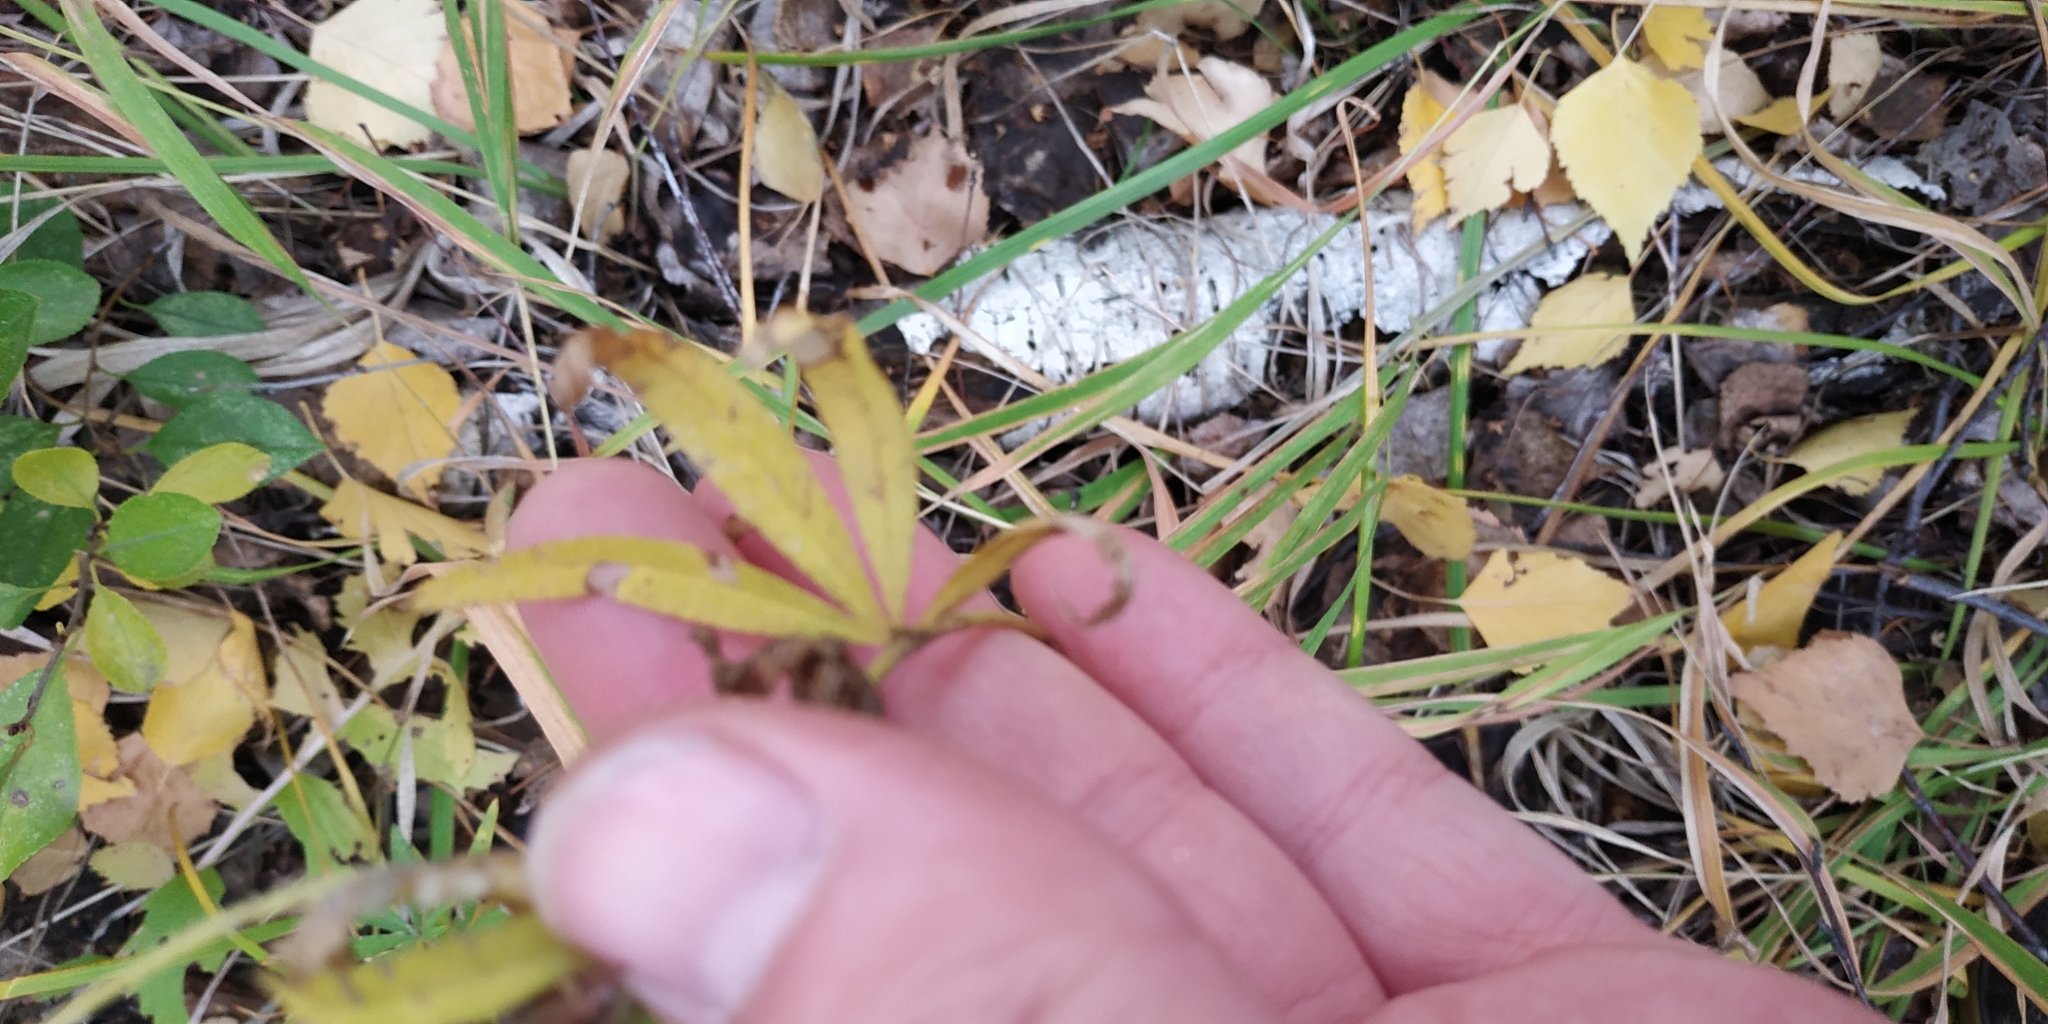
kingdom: Plantae
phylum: Tracheophyta
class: Magnoliopsida
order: Fabales
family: Fabaceae
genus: Trifolium
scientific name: Trifolium lupinaster
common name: Lupine clover
